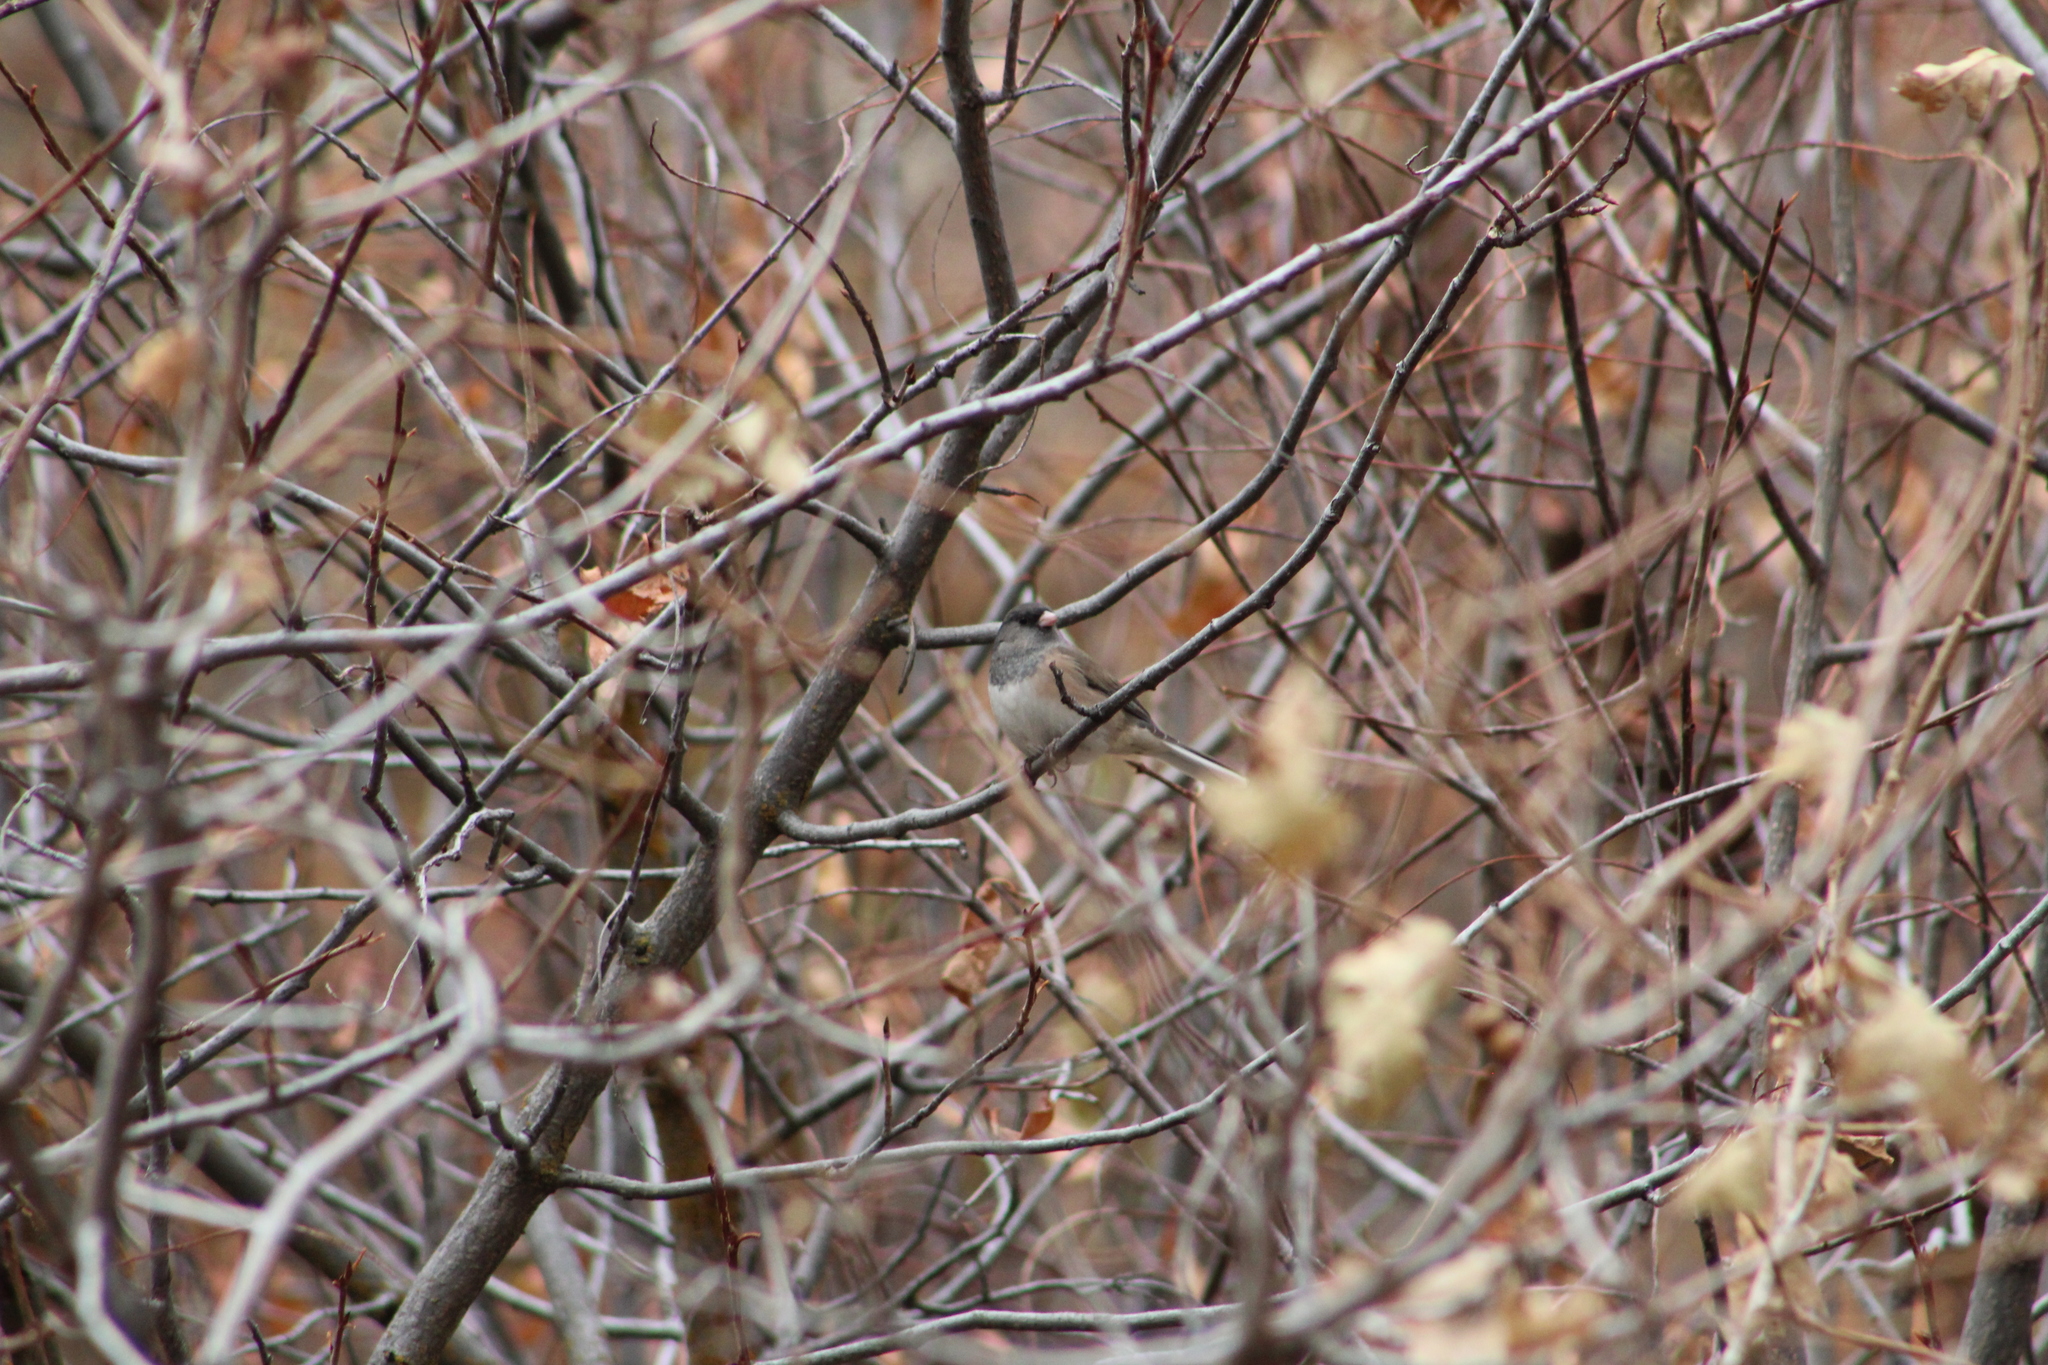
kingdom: Animalia
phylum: Chordata
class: Aves
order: Passeriformes
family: Passerellidae
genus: Junco
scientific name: Junco hyemalis
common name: Dark-eyed junco
